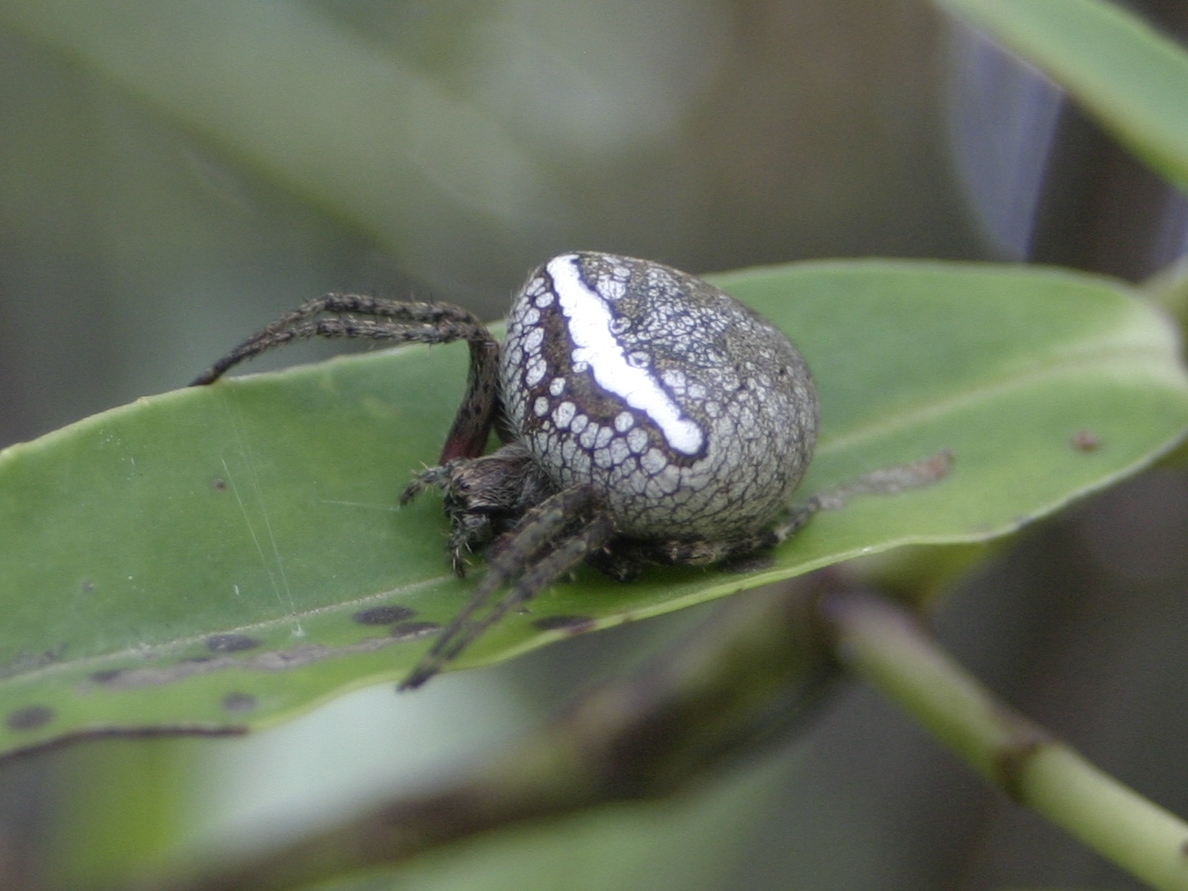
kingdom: Animalia
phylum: Arthropoda
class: Arachnida
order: Araneae
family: Araneidae
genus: Zealaranea
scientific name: Zealaranea crassa
